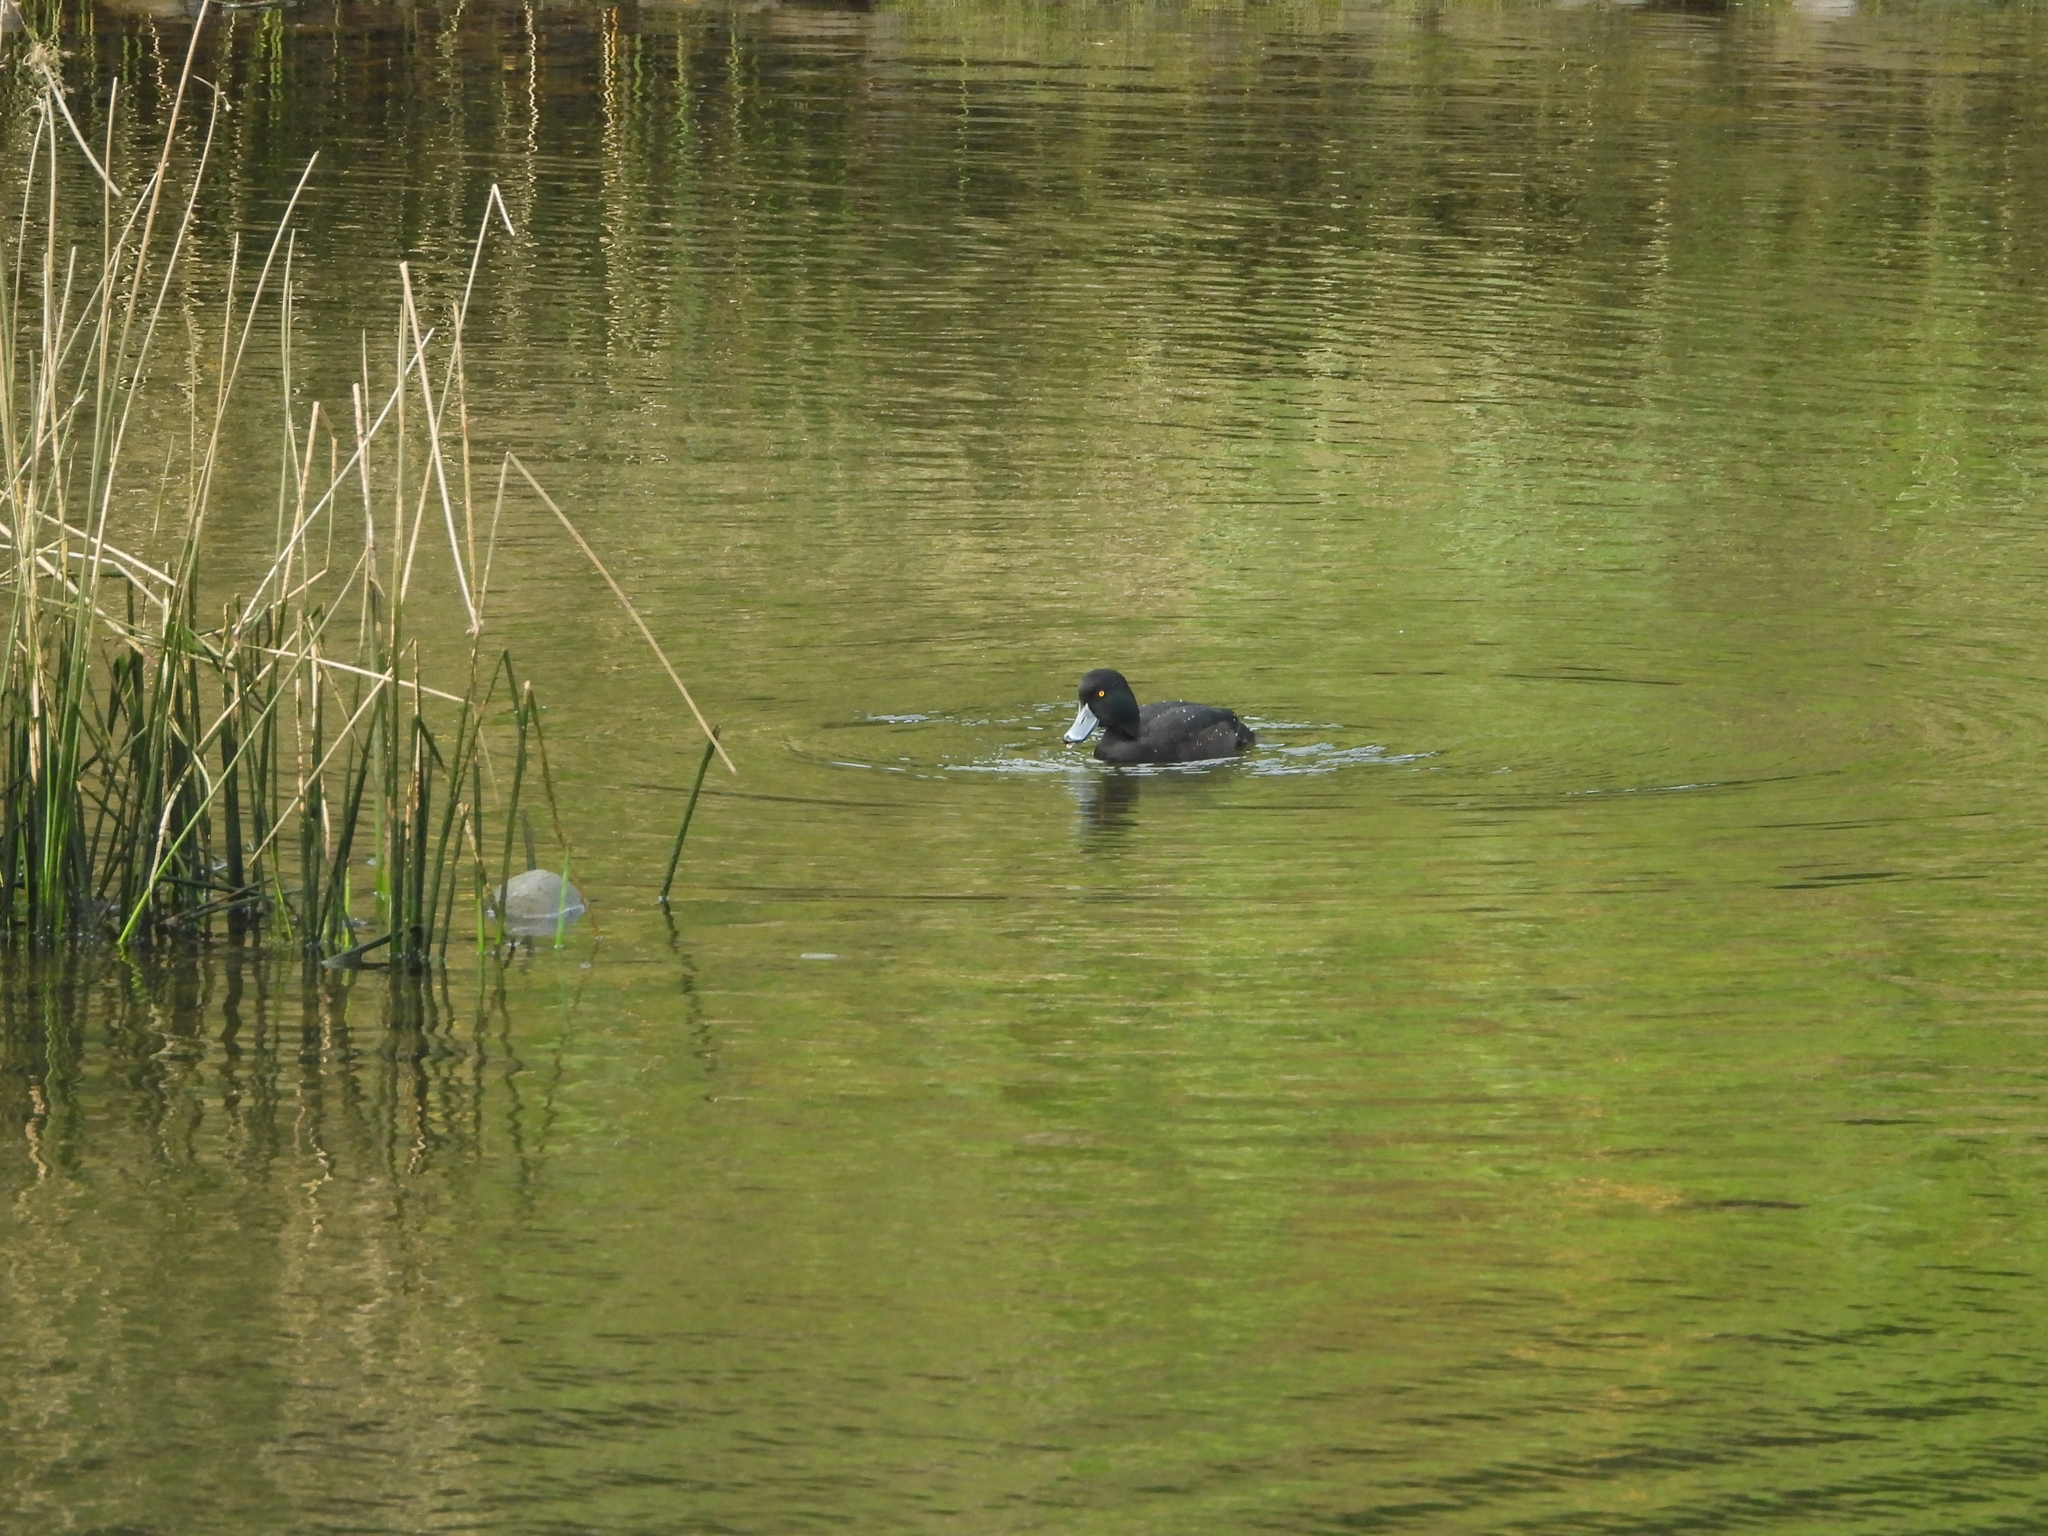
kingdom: Animalia
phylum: Chordata
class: Aves
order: Anseriformes
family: Anatidae
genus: Aythya
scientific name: Aythya novaeseelandiae
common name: New zealand scaup
